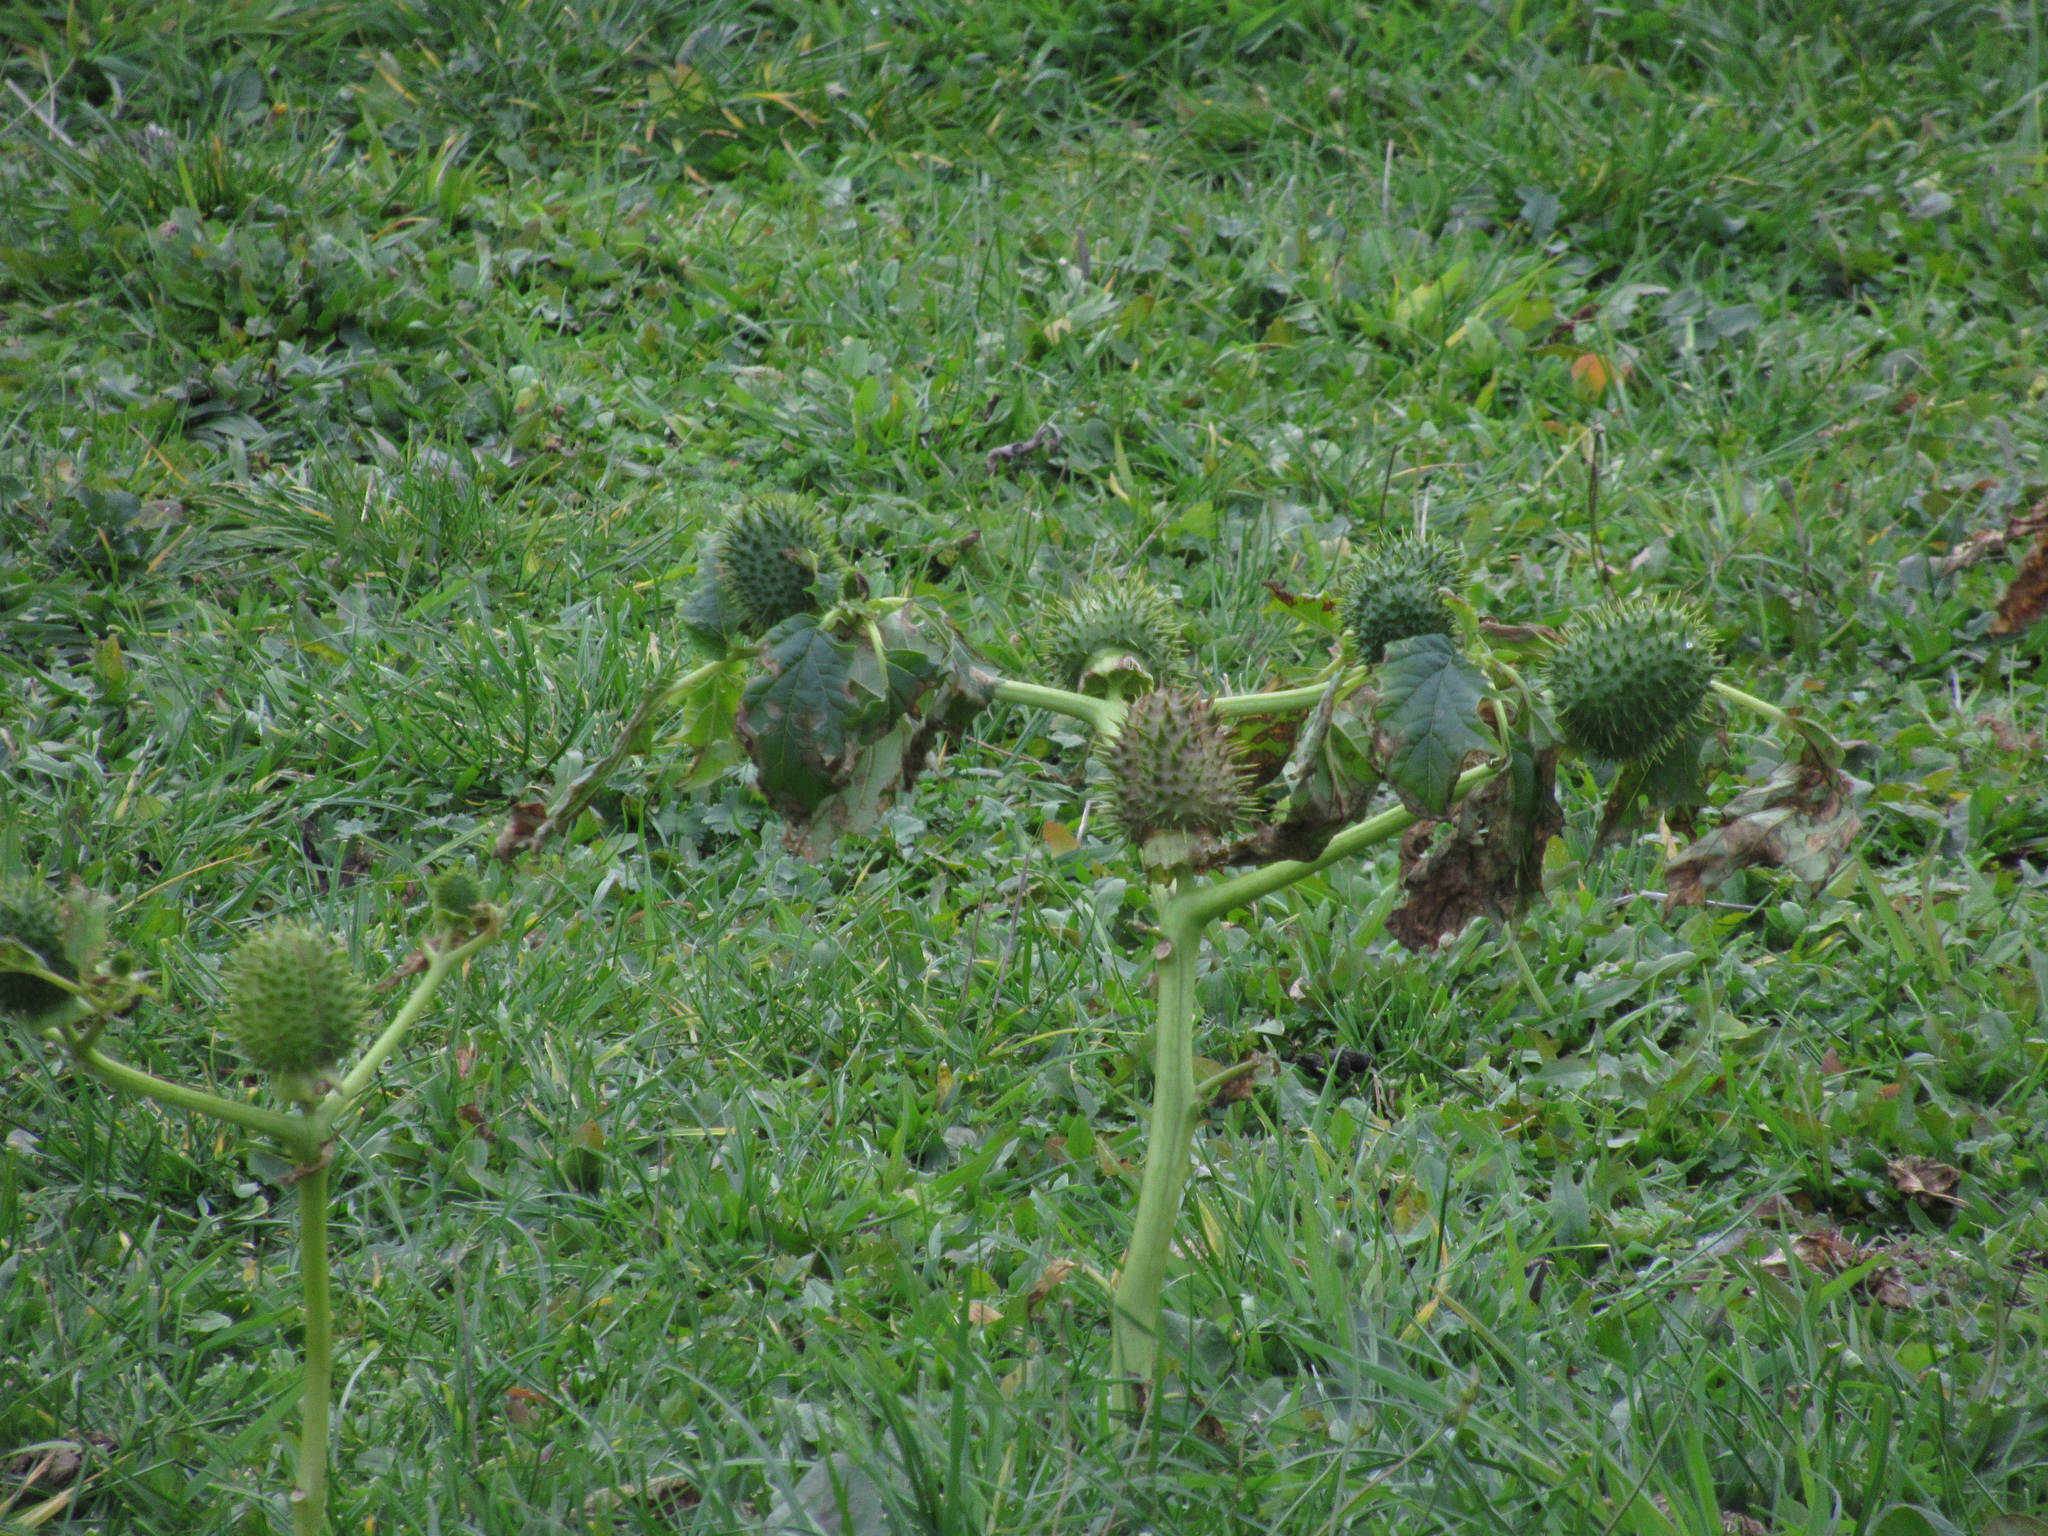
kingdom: Plantae
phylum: Tracheophyta
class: Magnoliopsida
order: Solanales
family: Solanaceae
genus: Datura
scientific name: Datura stramonium
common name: Thorn-apple
